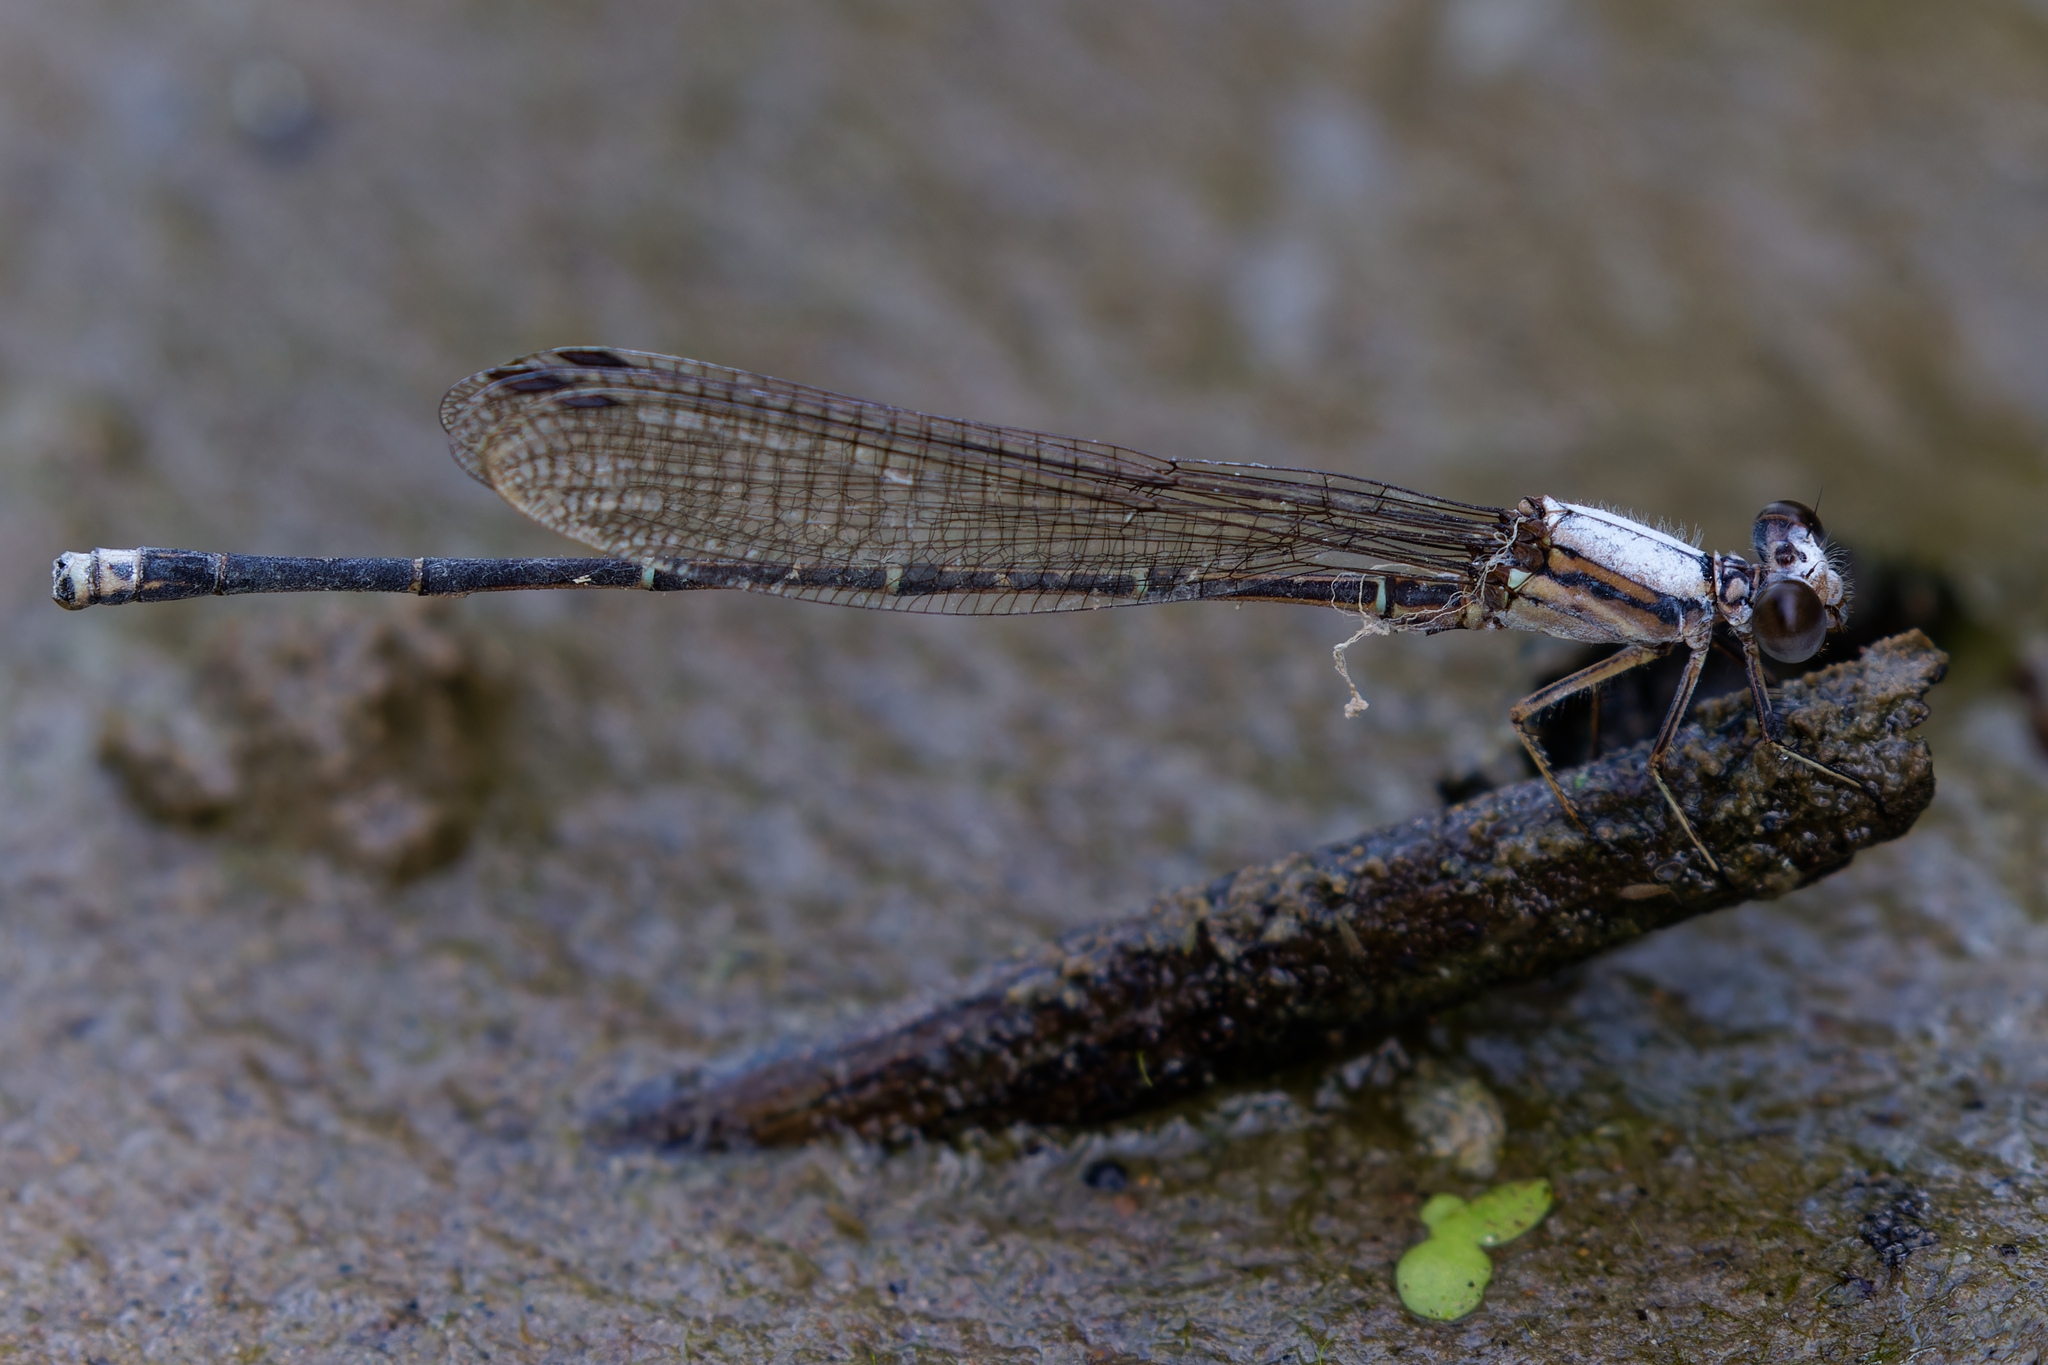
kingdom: Animalia
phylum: Arthropoda
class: Insecta
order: Odonata
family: Coenagrionidae
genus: Argia
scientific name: Argia moesta
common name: Powdered dancer
